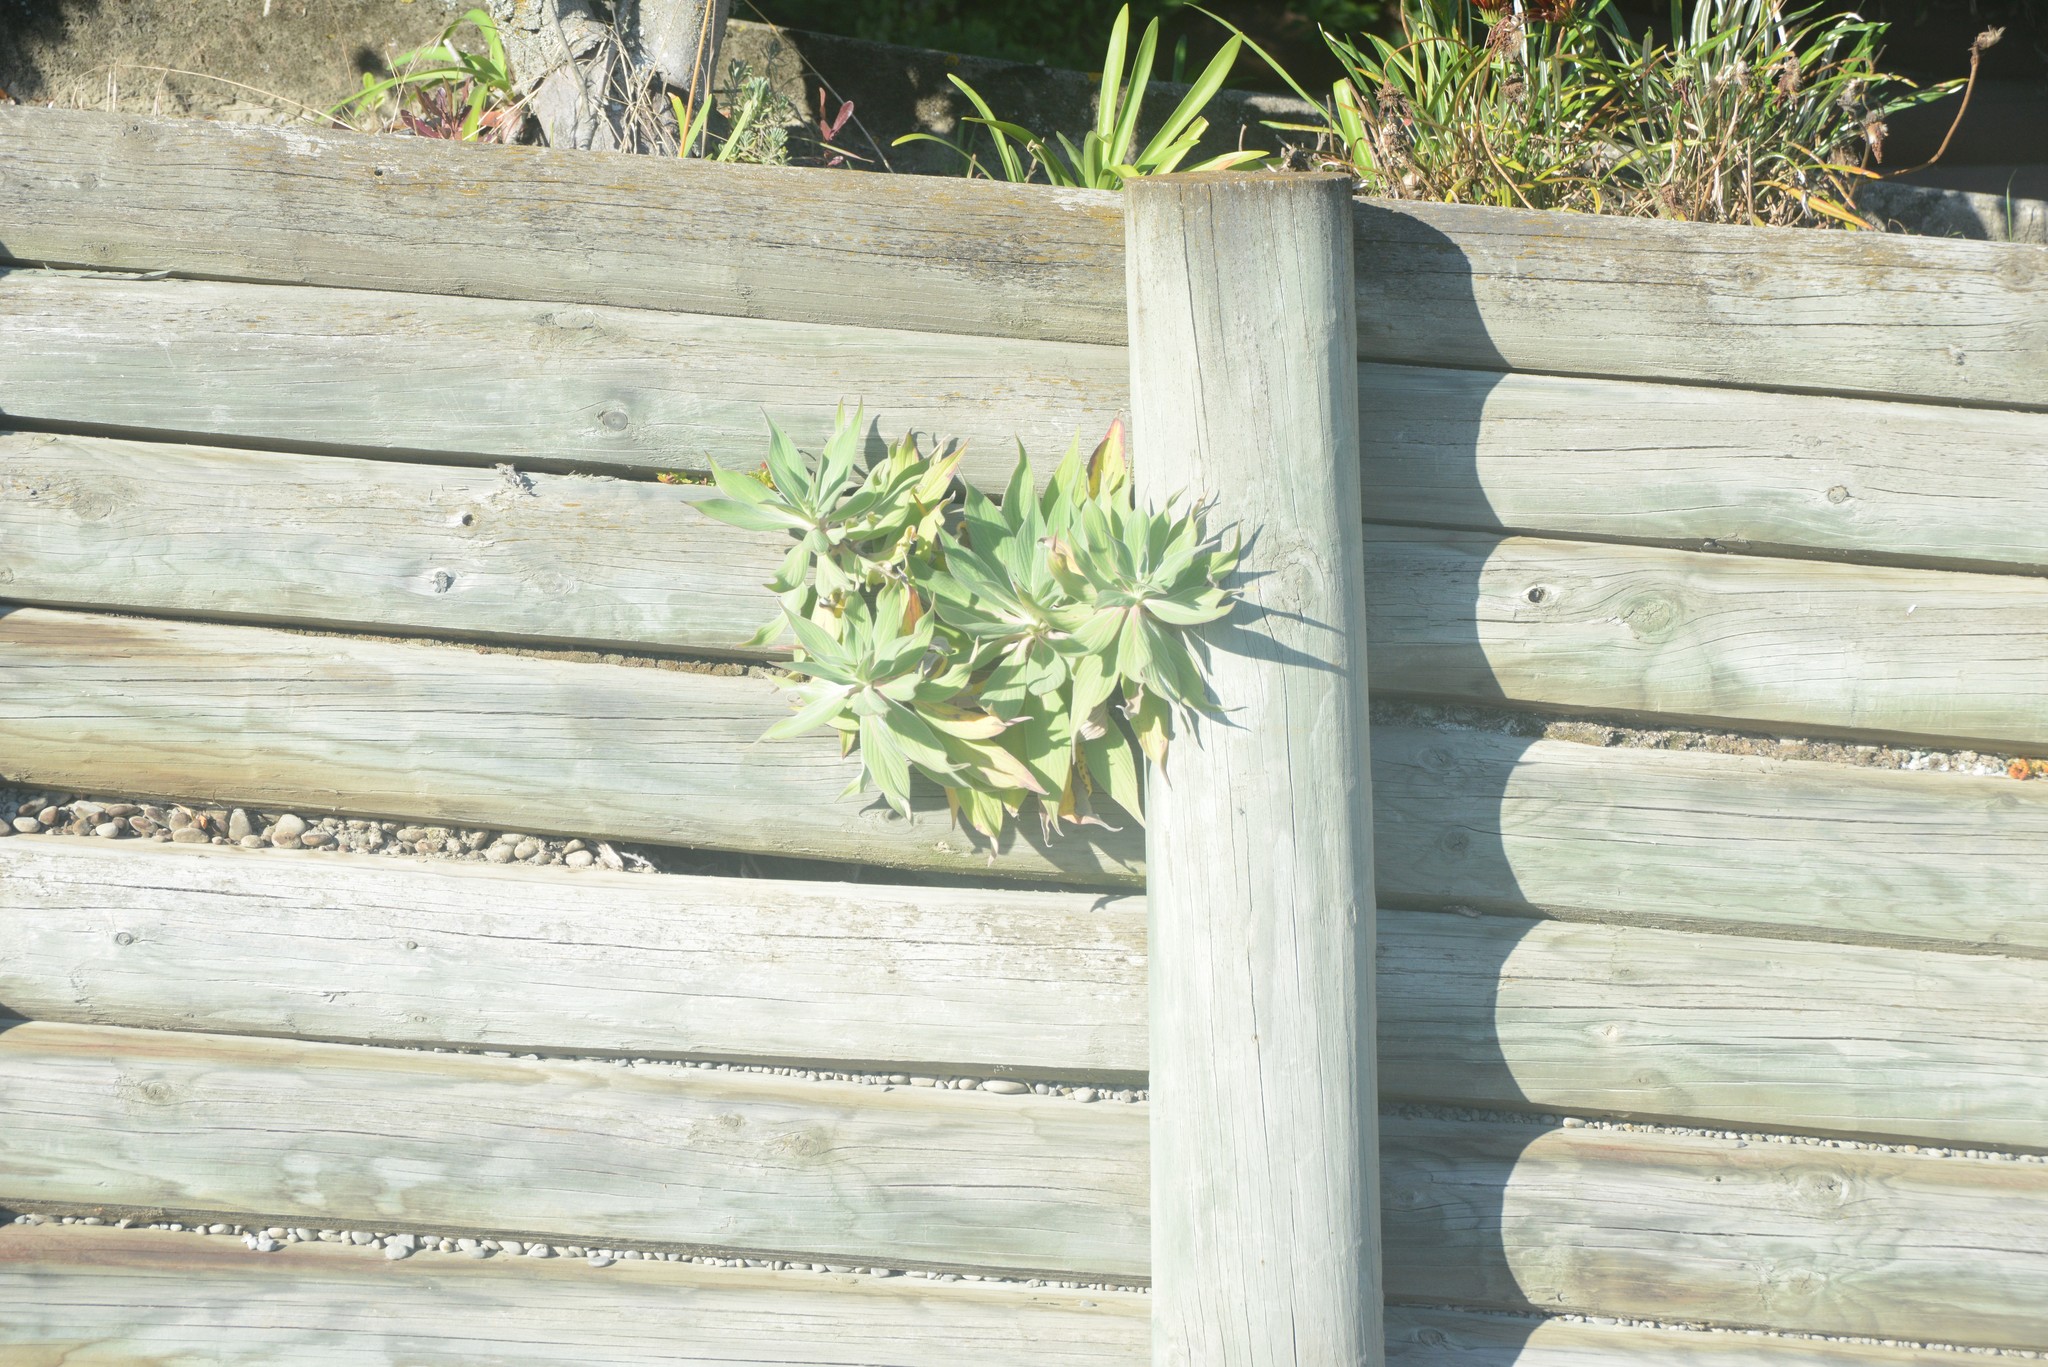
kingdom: Plantae
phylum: Tracheophyta
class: Magnoliopsida
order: Boraginales
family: Boraginaceae
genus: Echium
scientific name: Echium candicans
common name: Pride of madeira
